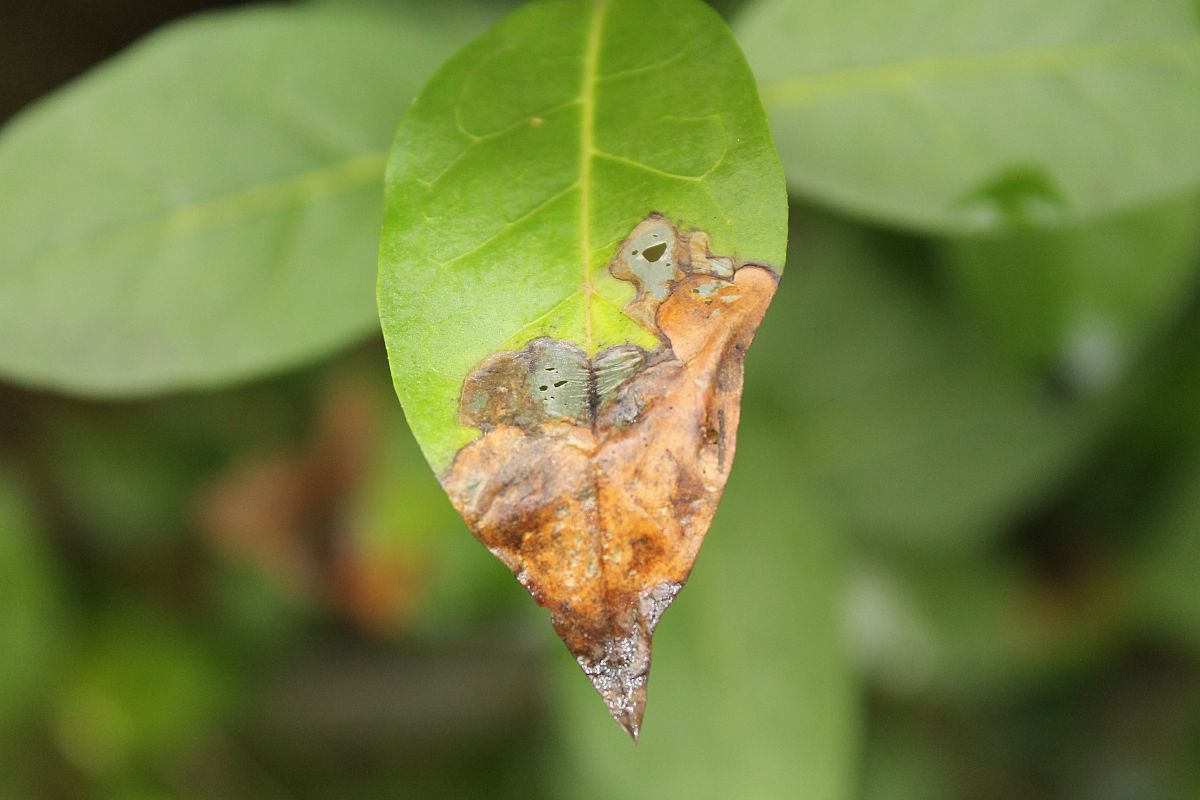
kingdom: Animalia
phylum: Arthropoda
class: Insecta
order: Lepidoptera
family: Gracillariidae
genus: Gracillaria
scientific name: Gracillaria syringella
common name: Common slender
